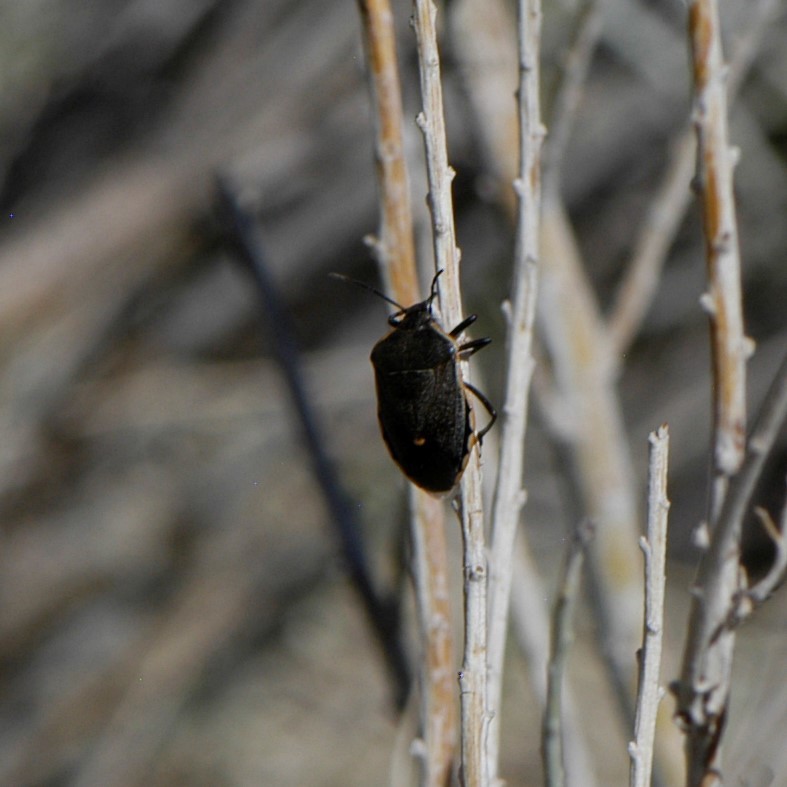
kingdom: Animalia
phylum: Arthropoda
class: Insecta
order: Hemiptera
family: Pentatomidae
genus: Chlorochroa
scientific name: Chlorochroa ligata
